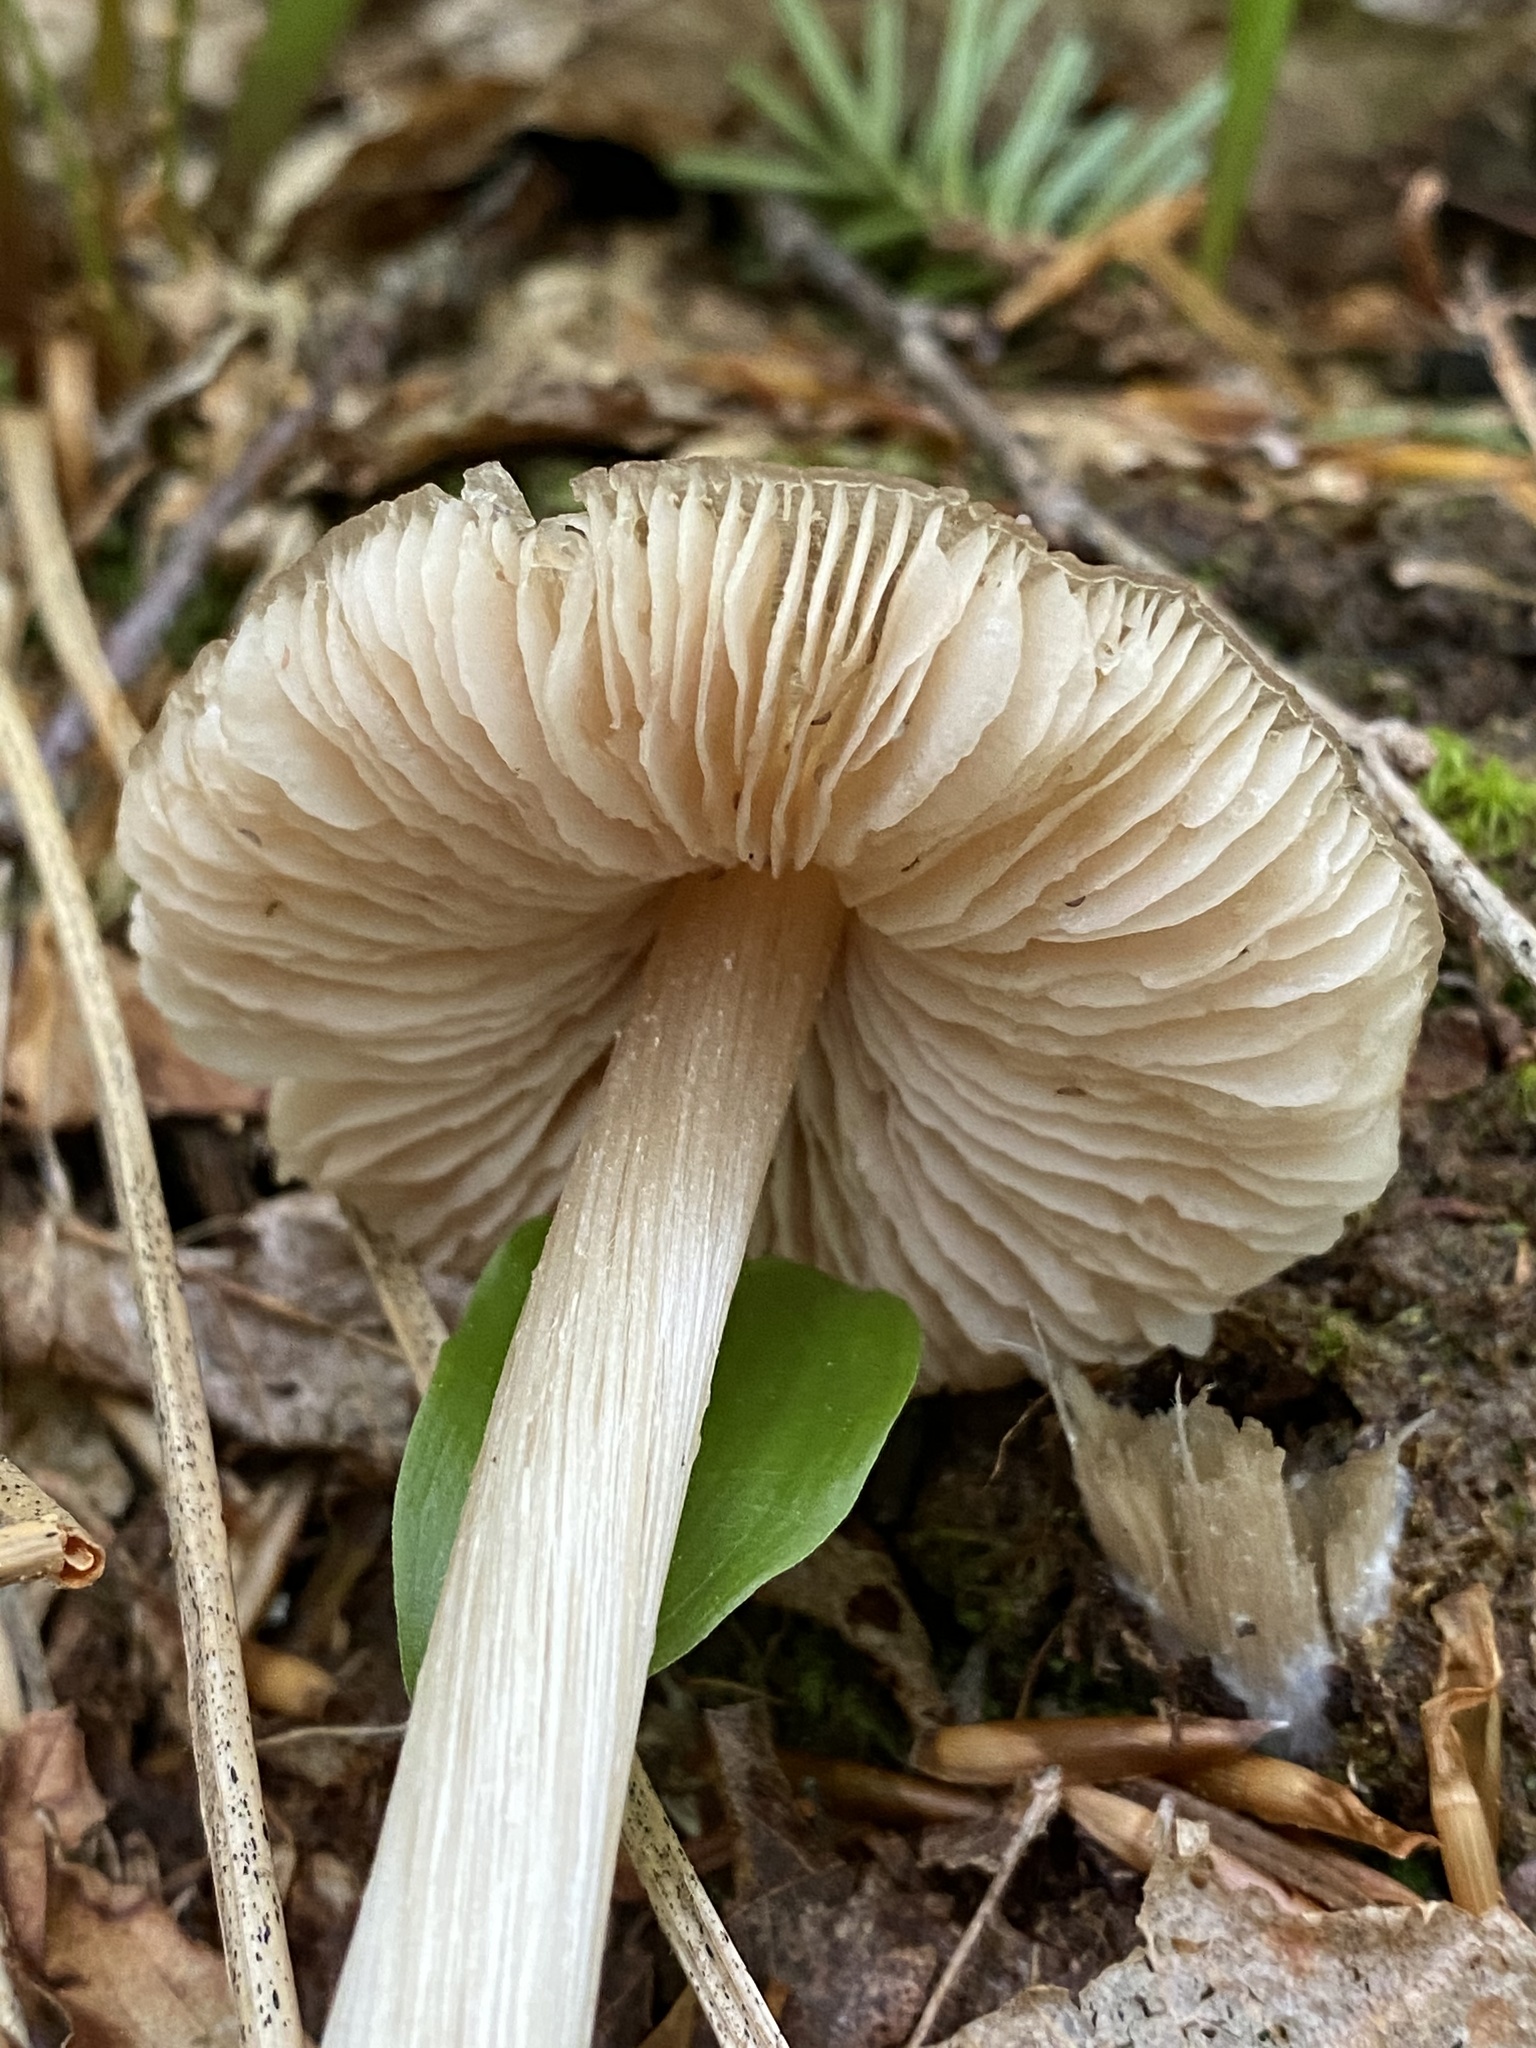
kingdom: Fungi
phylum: Basidiomycota
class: Agaricomycetes
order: Agaricales
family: Entolomataceae
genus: Entoloma
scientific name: Entoloma strictius
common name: Straight-stalked entoloma
